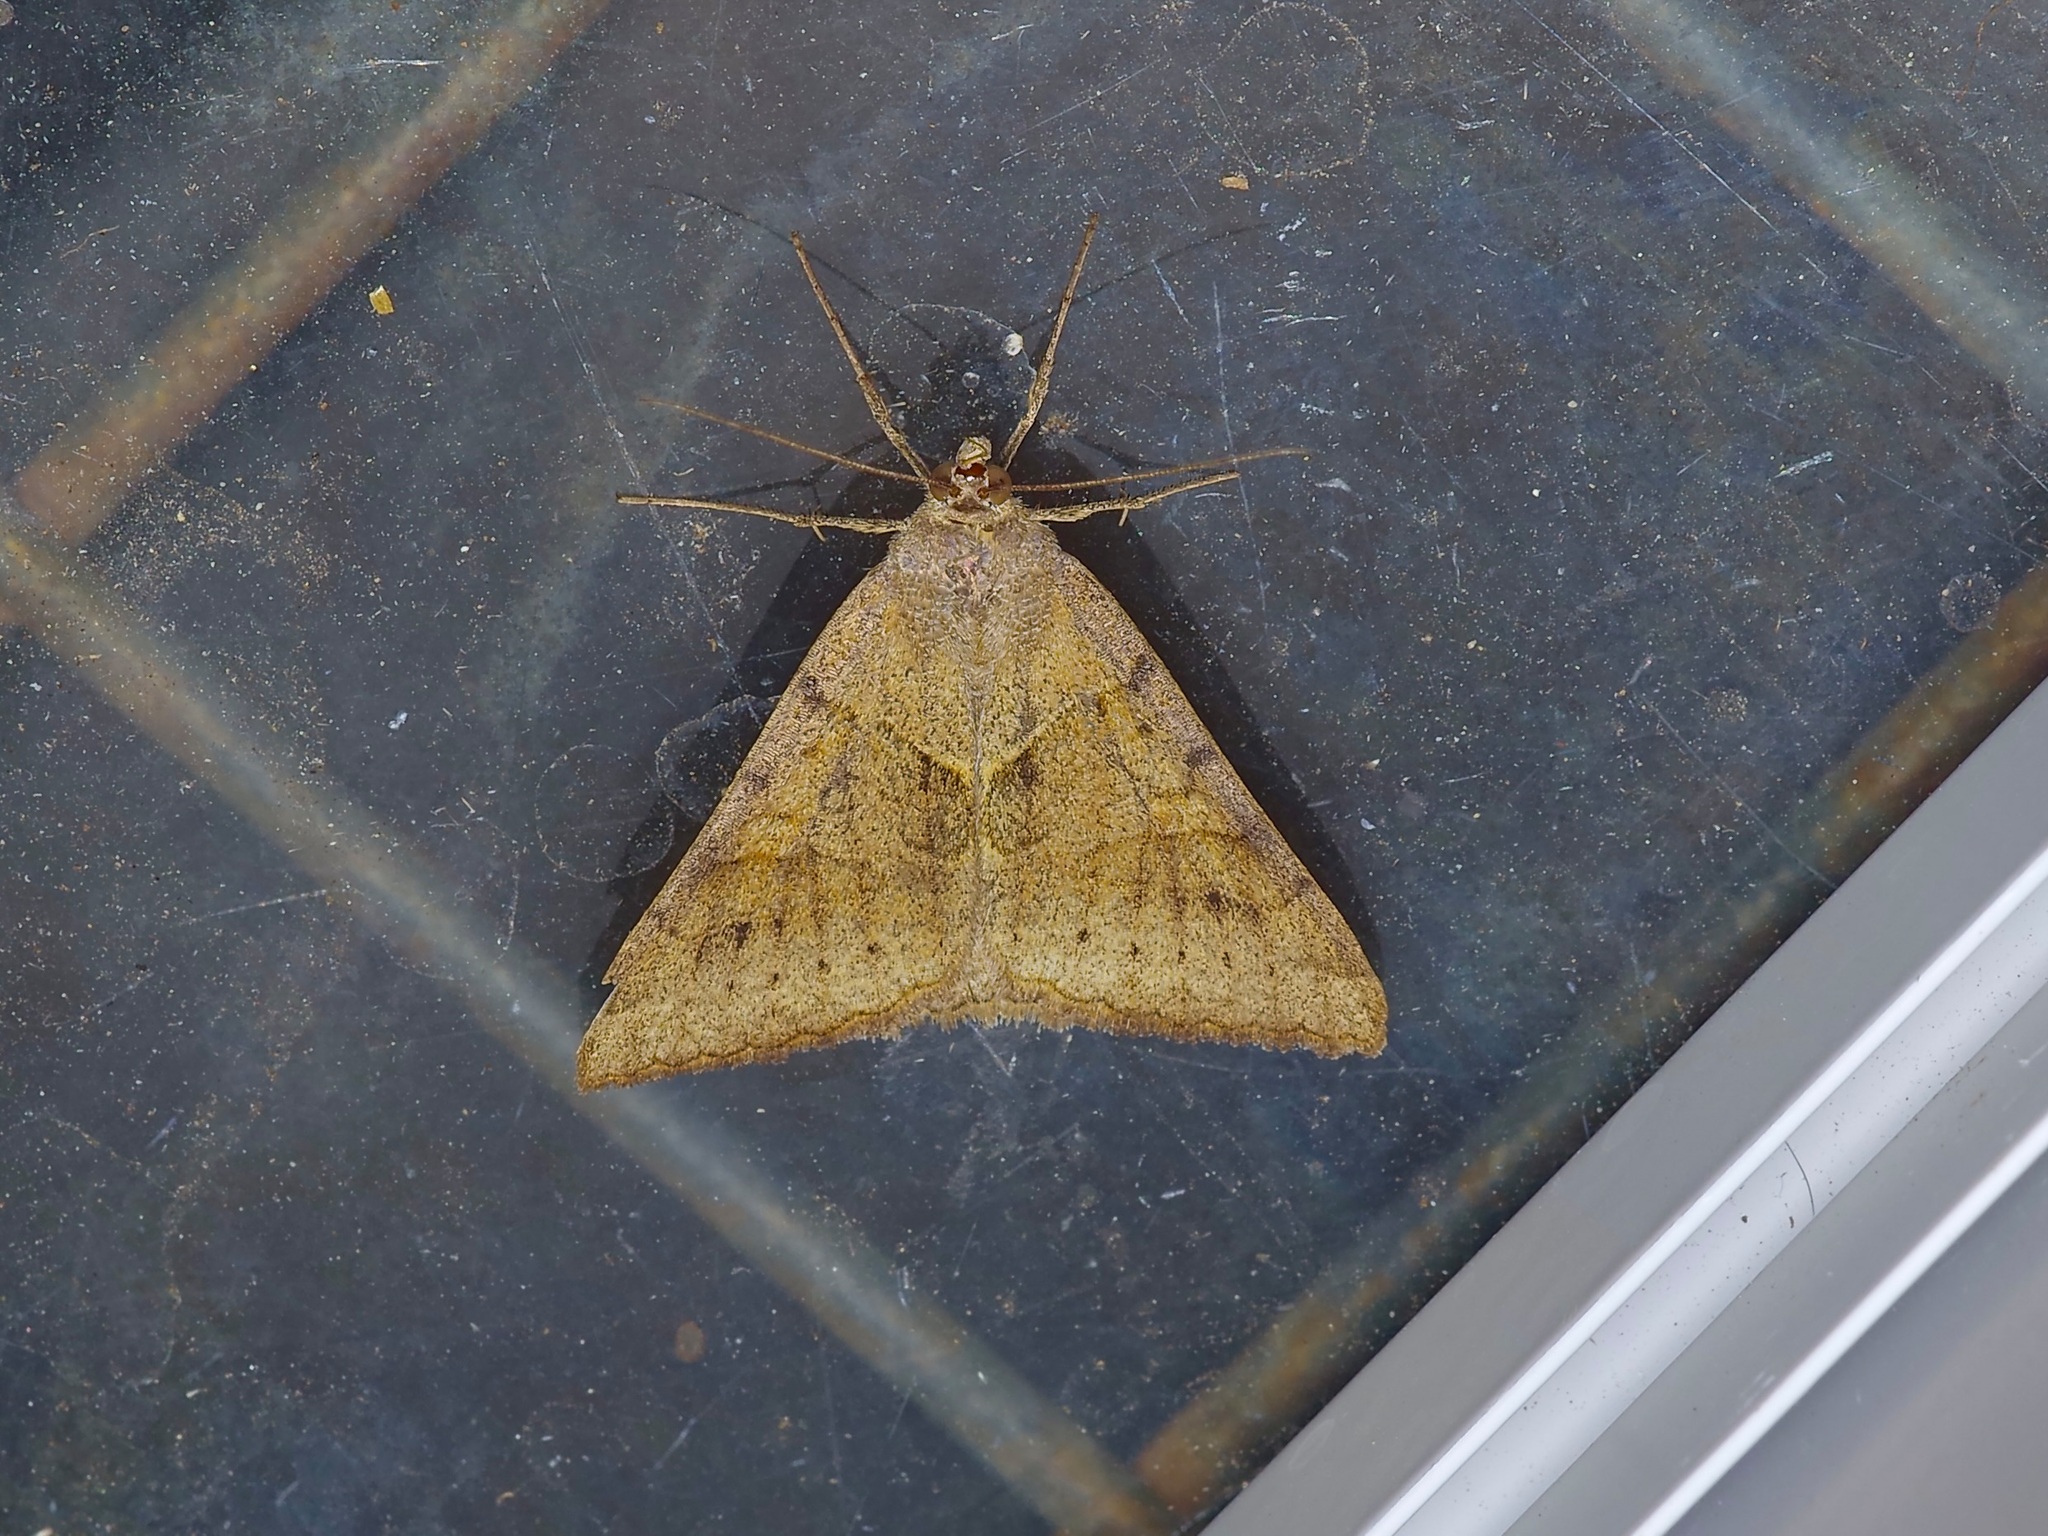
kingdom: Animalia
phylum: Arthropoda
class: Insecta
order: Lepidoptera
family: Erebidae
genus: Caenurgina
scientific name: Caenurgina erechtea
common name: Forage looper moth
